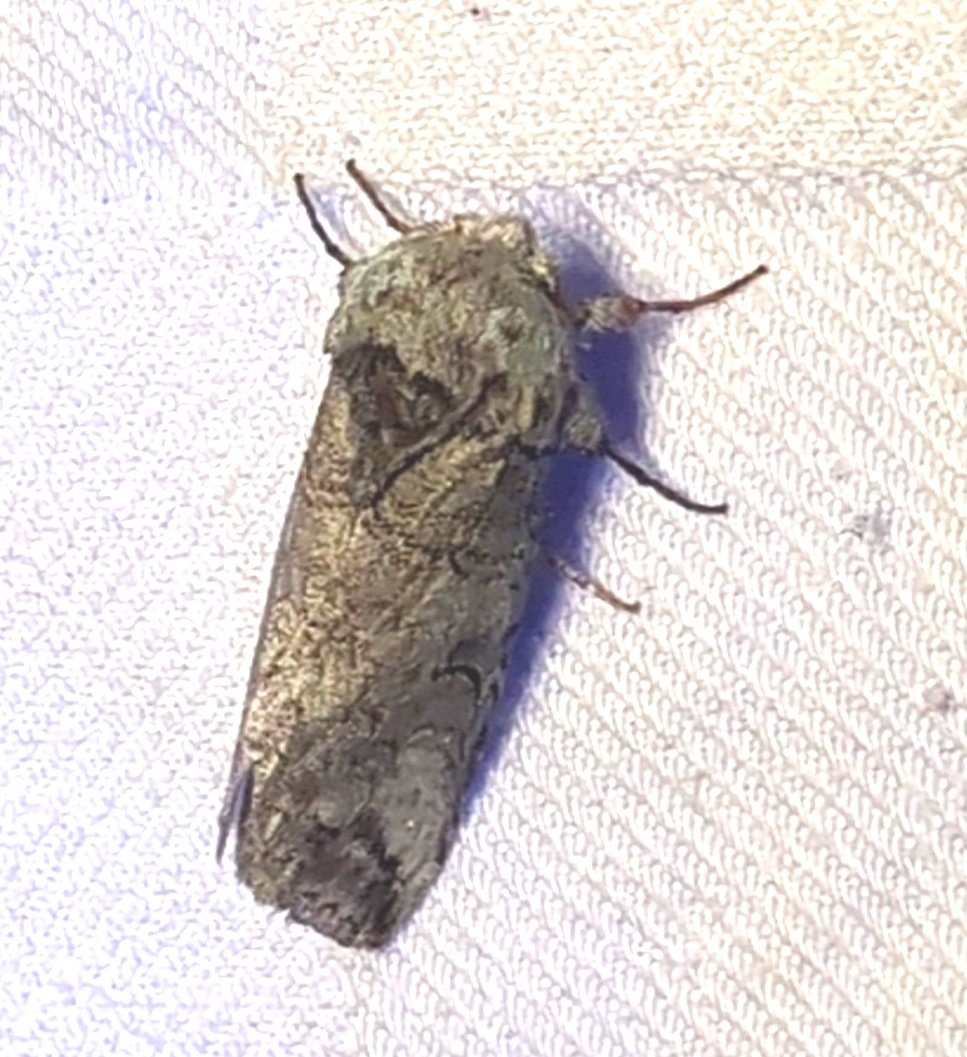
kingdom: Animalia
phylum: Arthropoda
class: Insecta
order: Lepidoptera
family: Notodontidae
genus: Heterocampa
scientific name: Heterocampa astartoides
